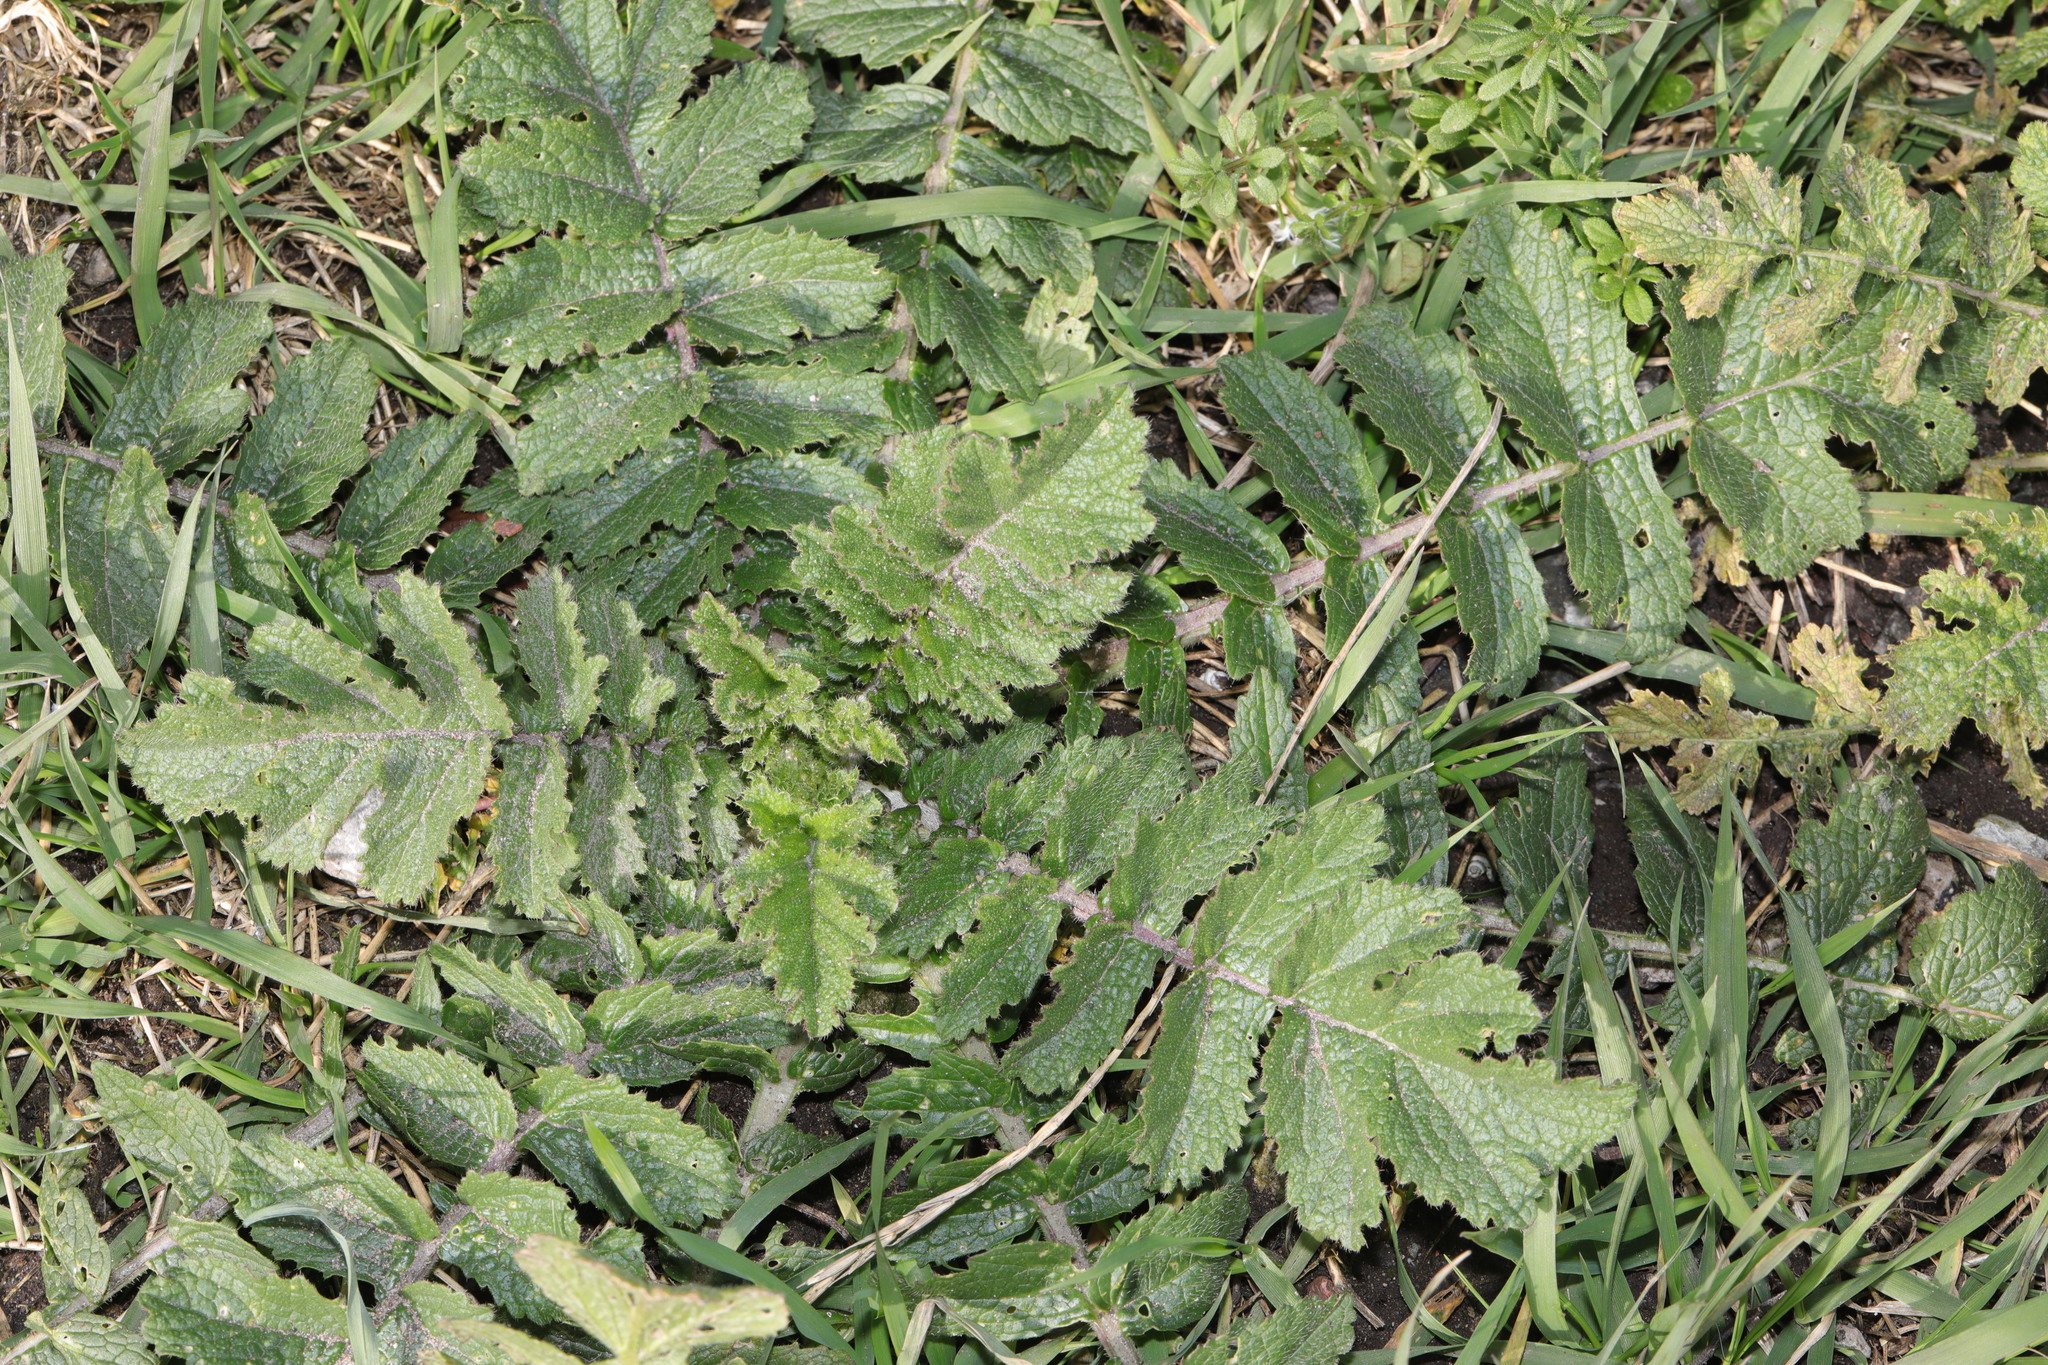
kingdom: Plantae
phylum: Tracheophyta
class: Magnoliopsida
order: Brassicales
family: Brassicaceae
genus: Raphanus
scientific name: Raphanus raphanistrum
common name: Wild radish
